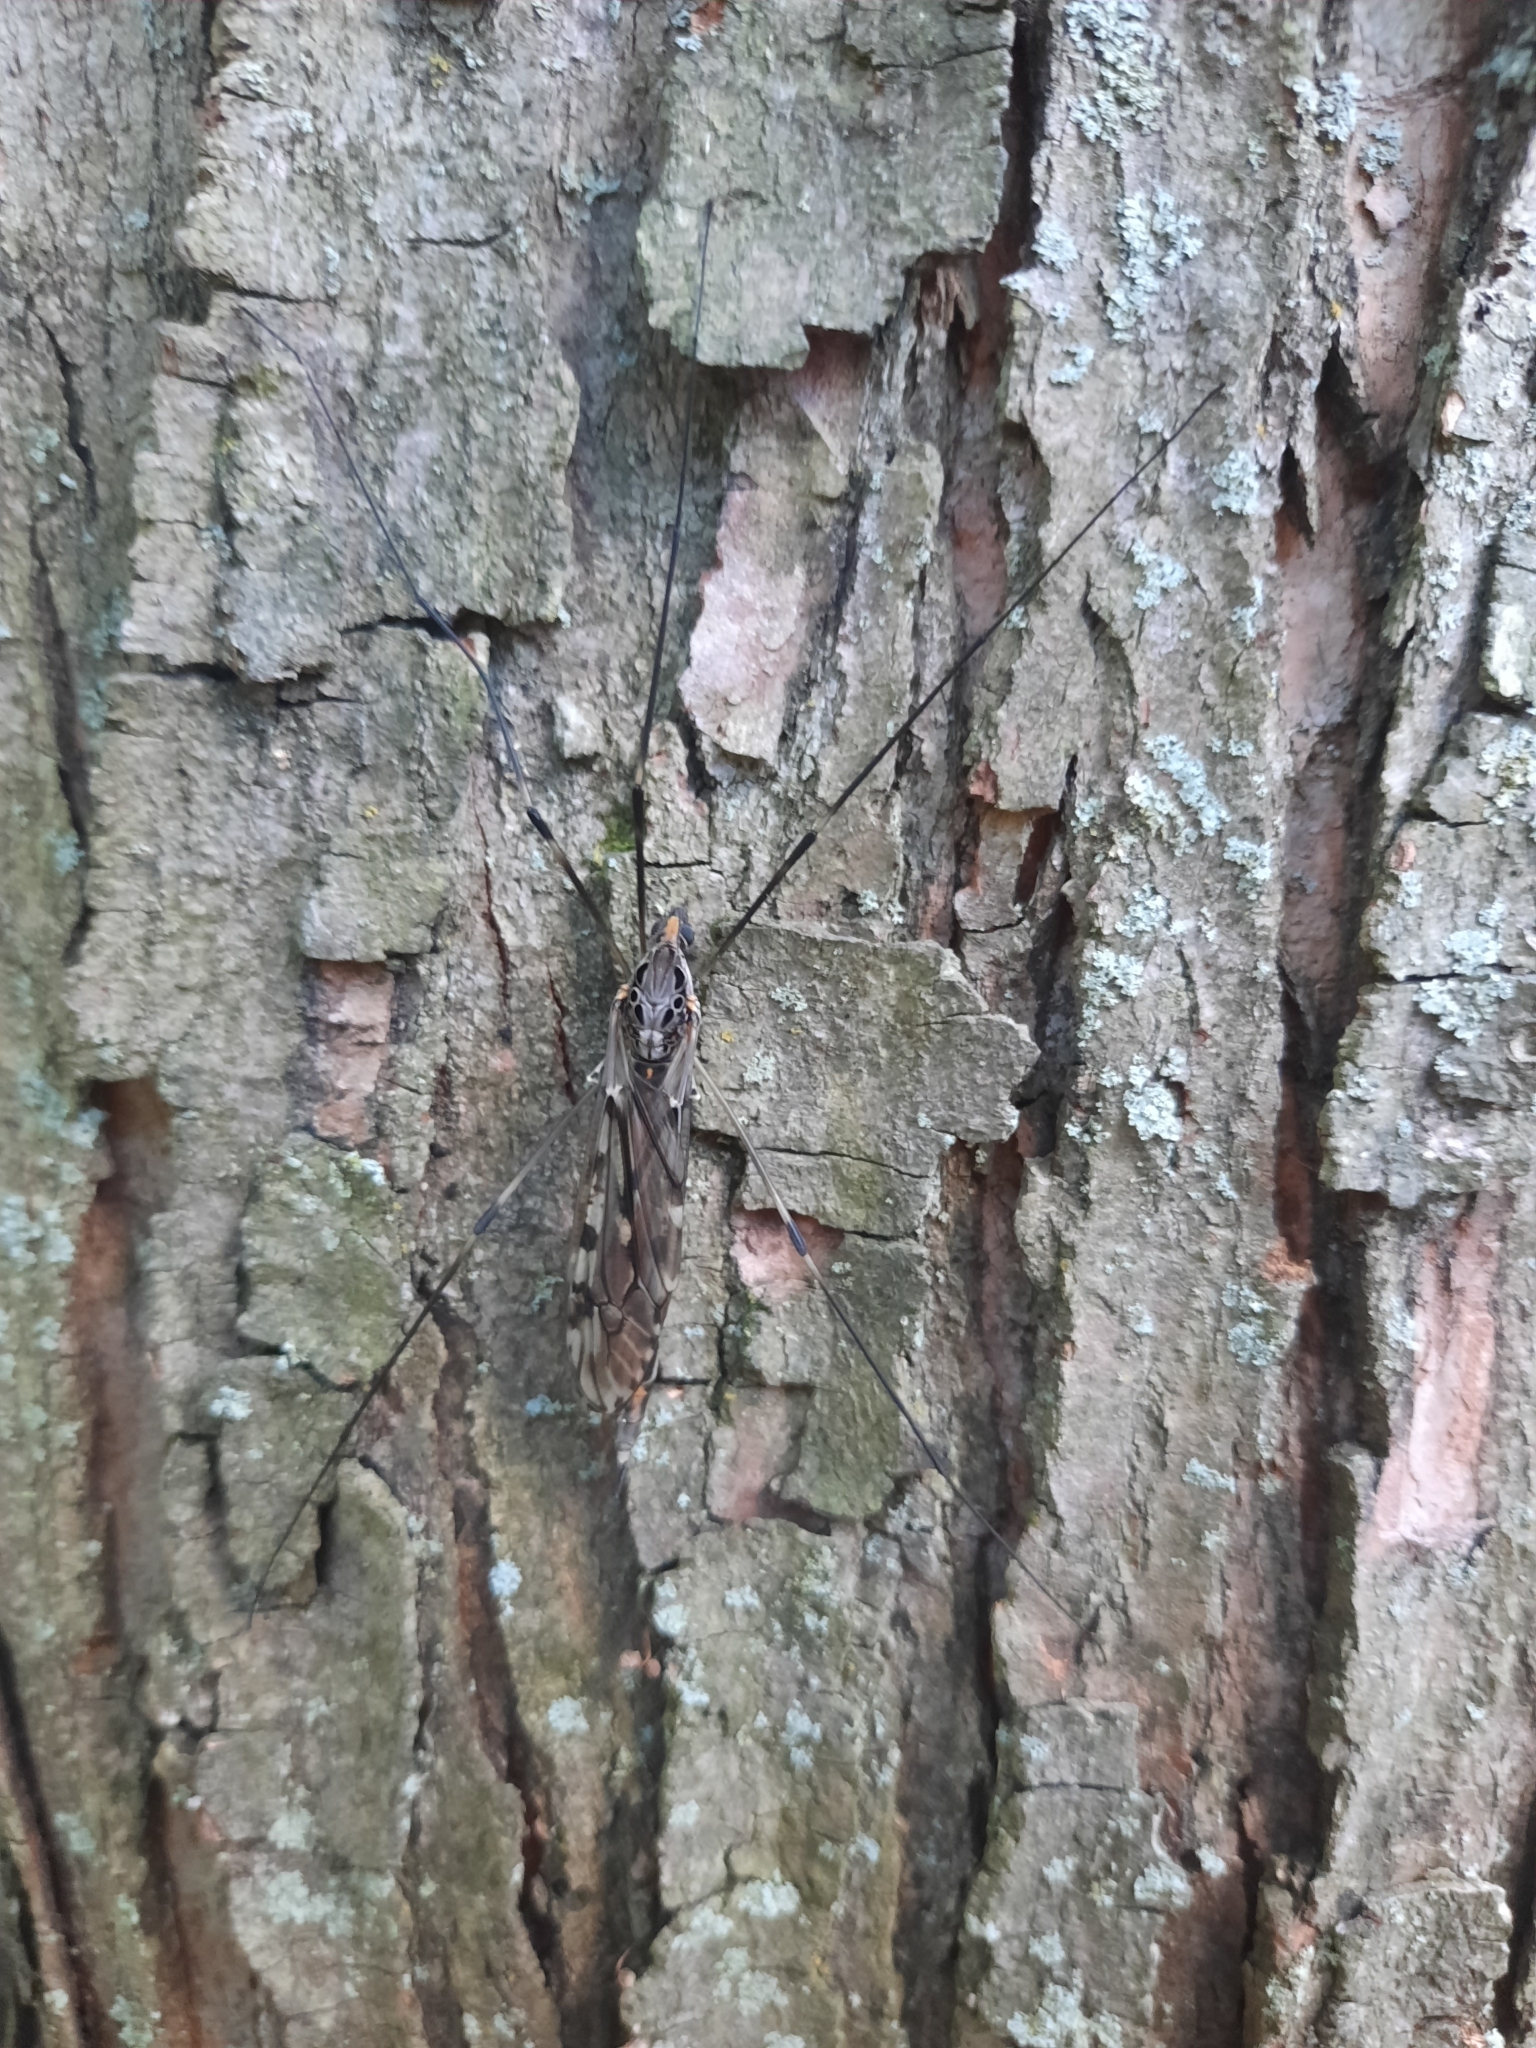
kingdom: Animalia
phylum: Arthropoda
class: Insecta
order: Diptera
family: Tipulidae
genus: Tipula
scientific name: Tipula abdominalis
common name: Giant crane fly
